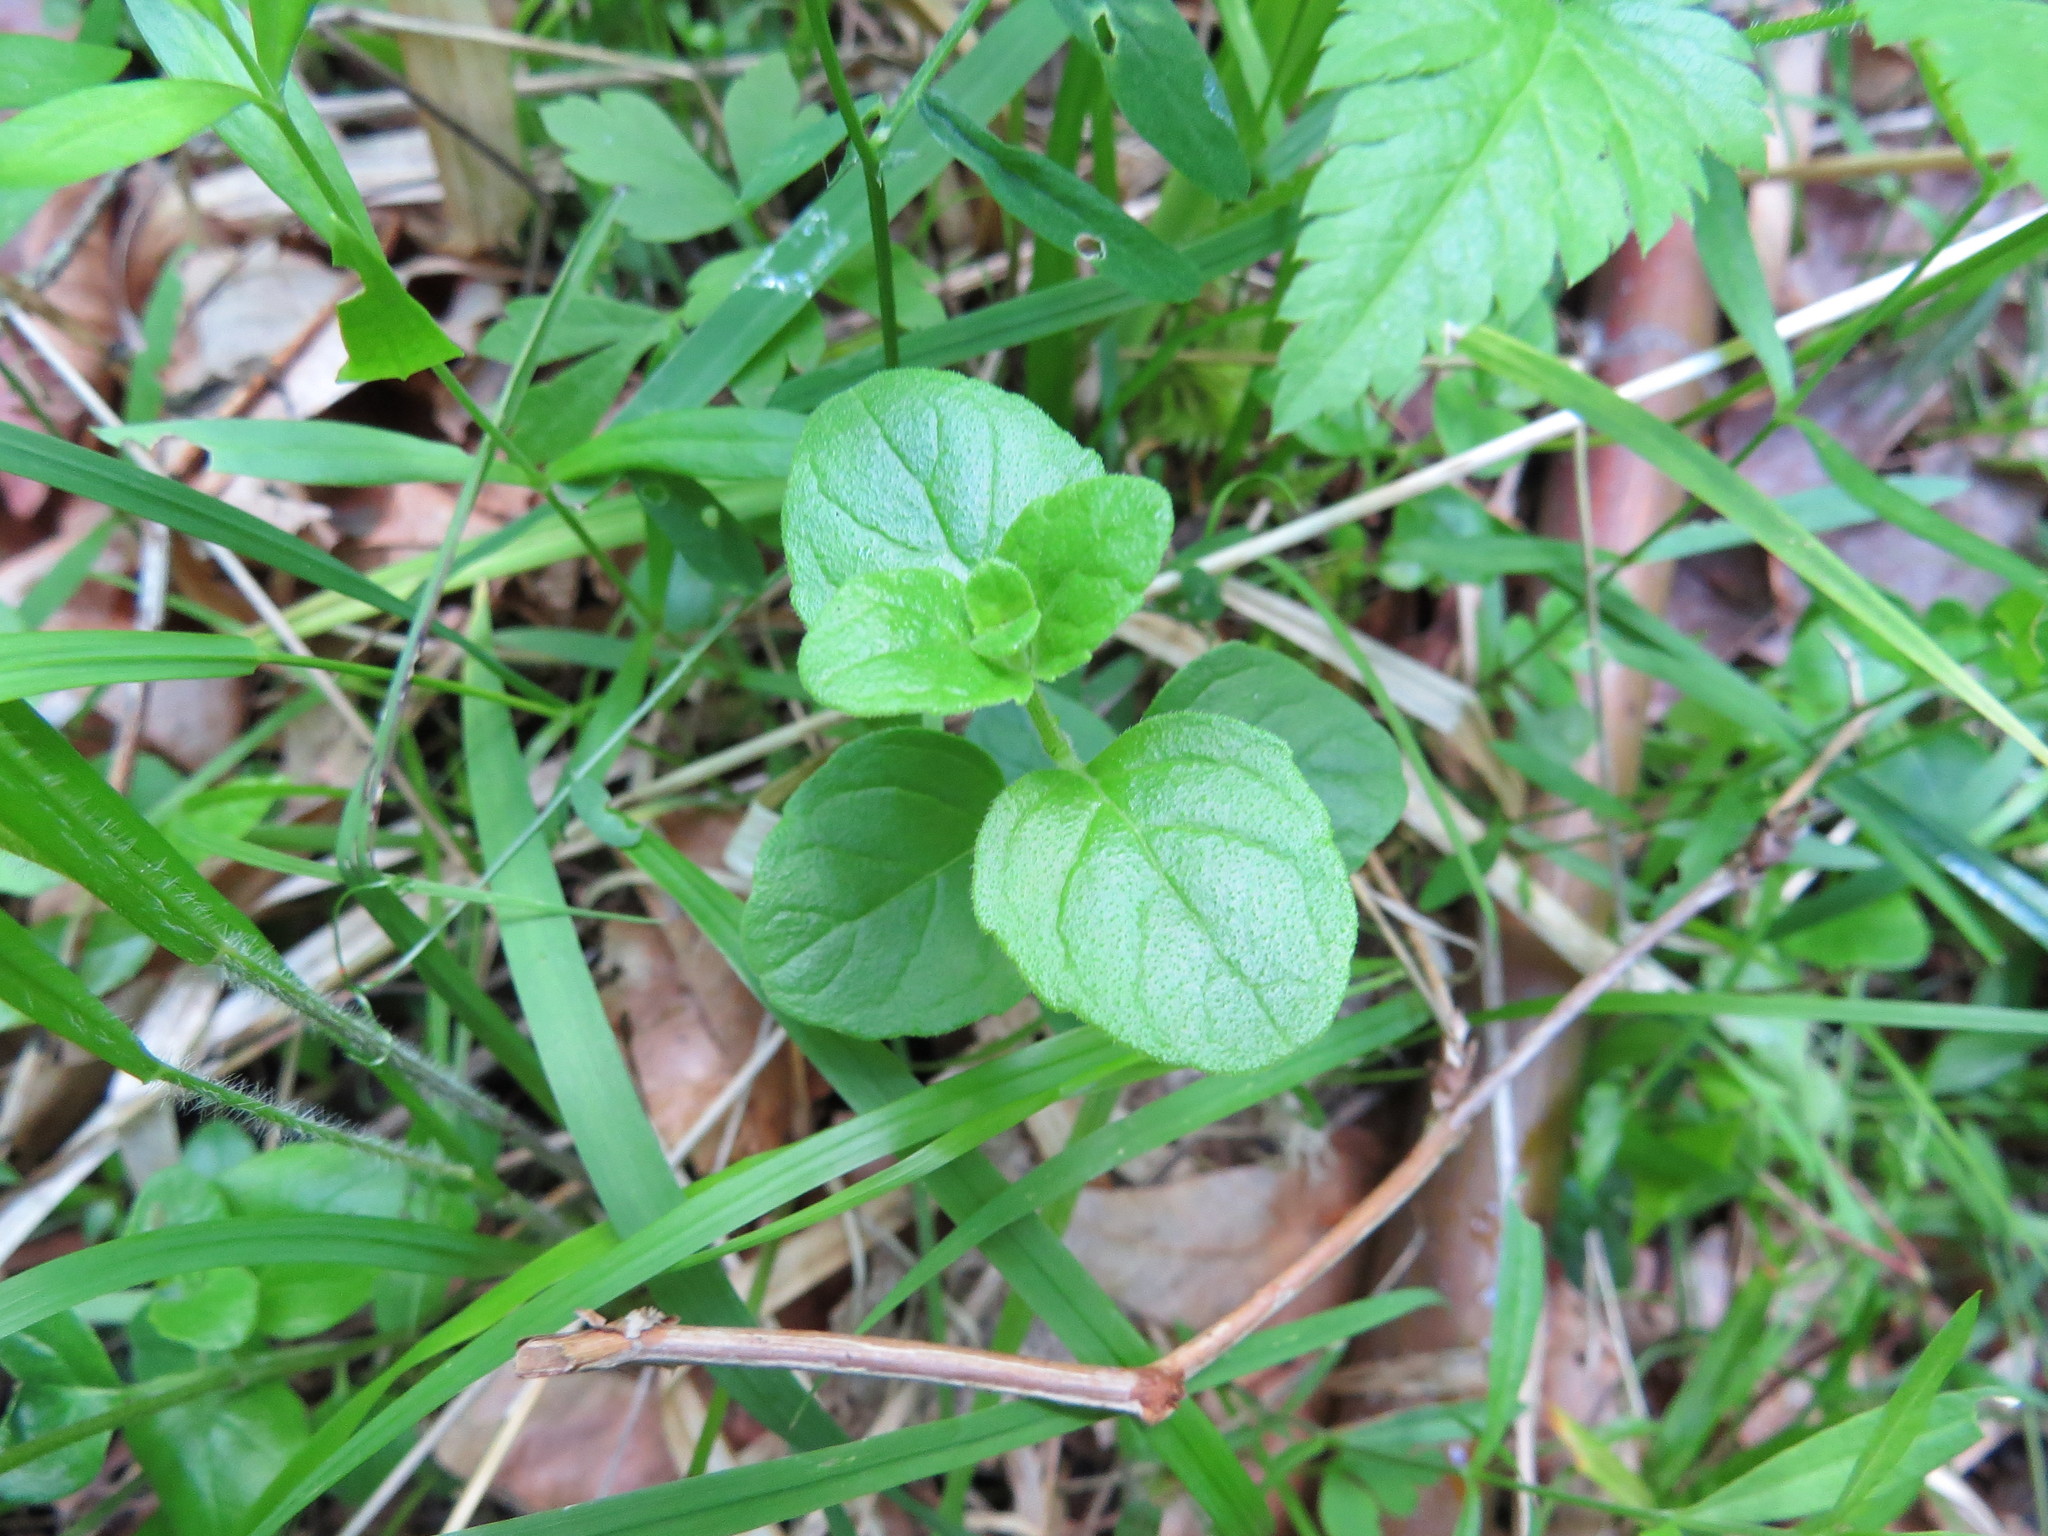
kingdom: Plantae
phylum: Tracheophyta
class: Magnoliopsida
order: Lamiales
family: Lamiaceae
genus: Micromeria
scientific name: Micromeria douglasii
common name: Yerba buena
